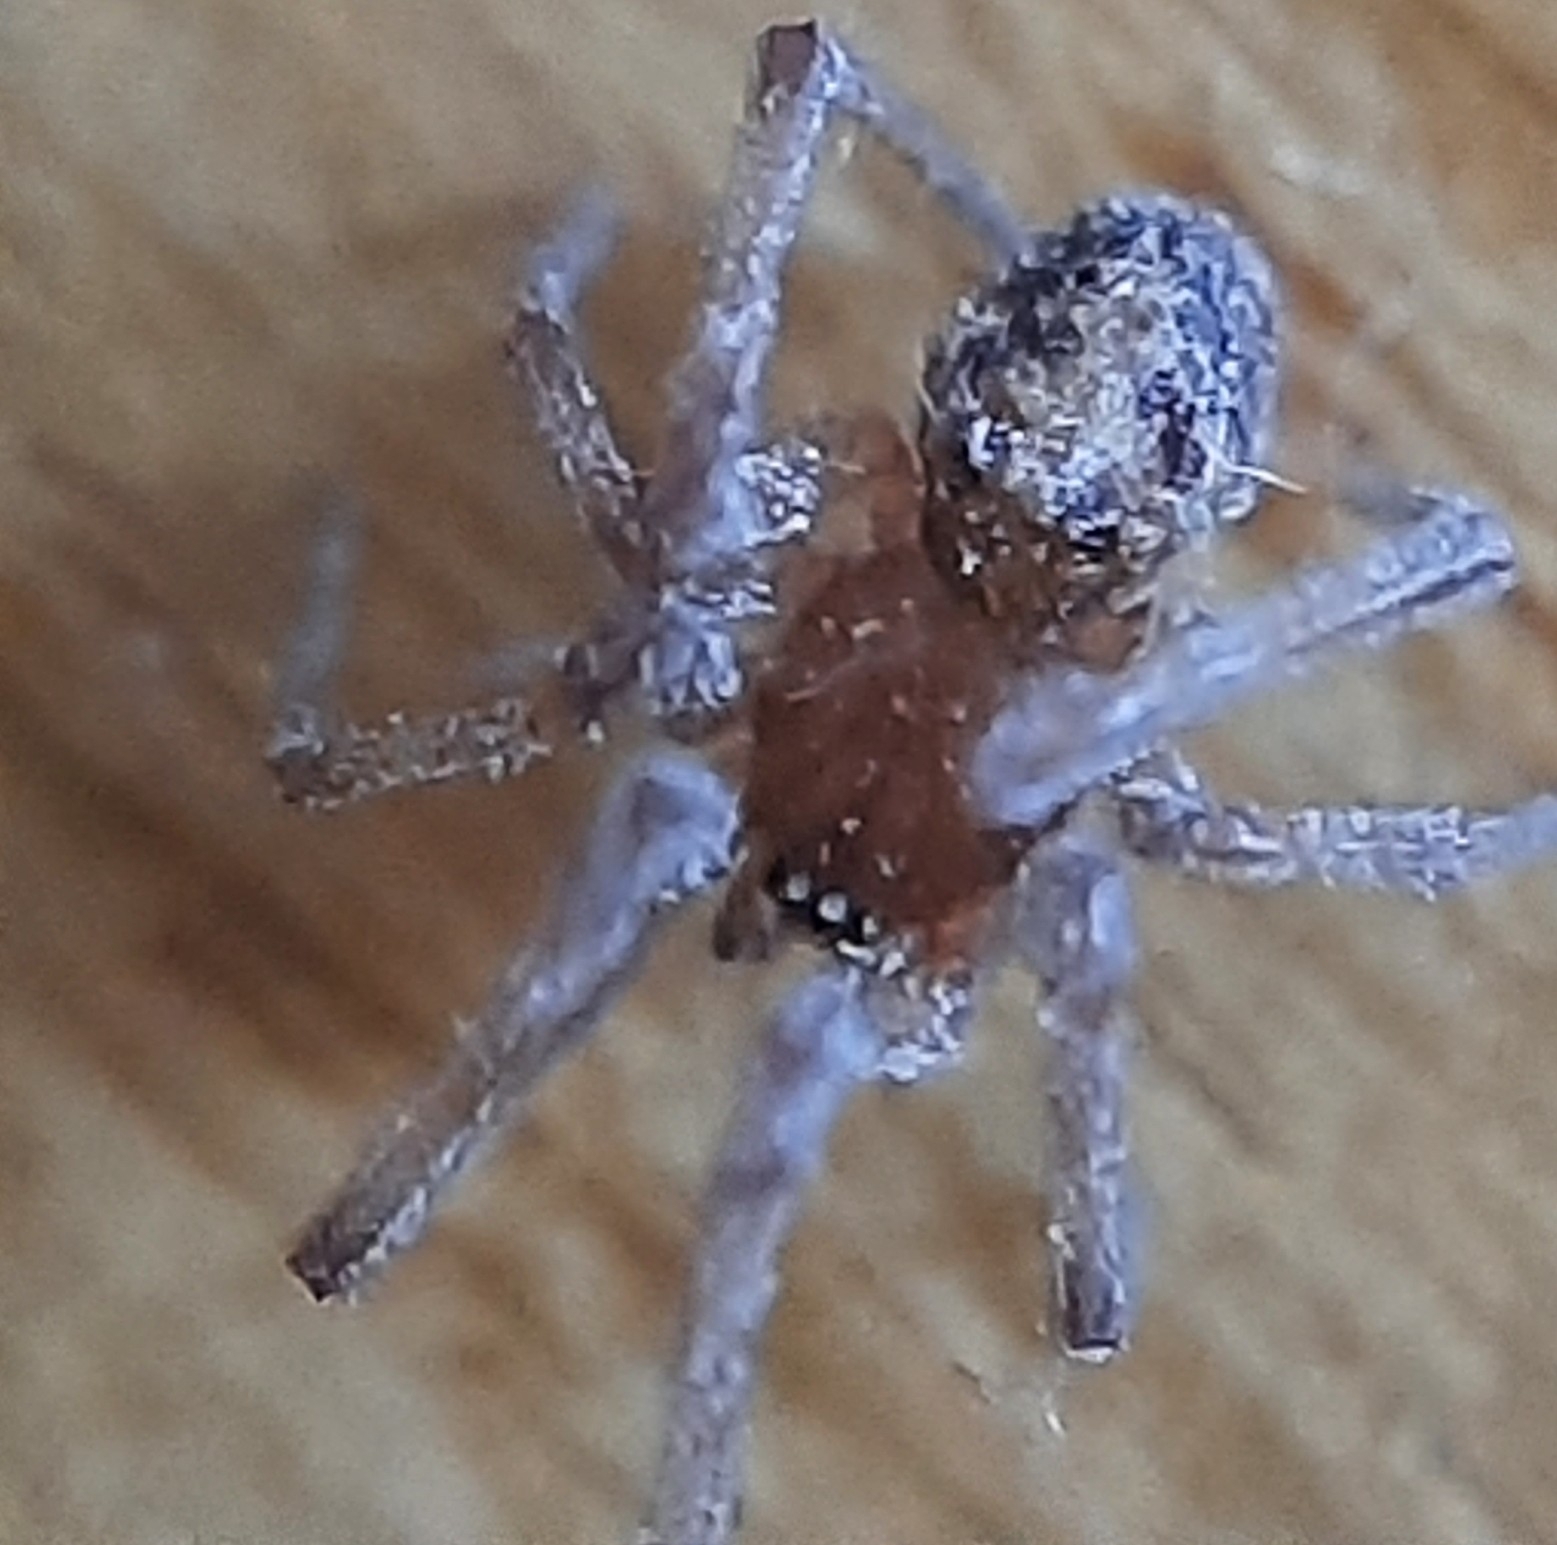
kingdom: Animalia
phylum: Arthropoda
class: Arachnida
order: Araneae
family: Theridiidae
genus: Steatoda
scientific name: Steatoda triangulosa
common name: Triangulate bud spider
